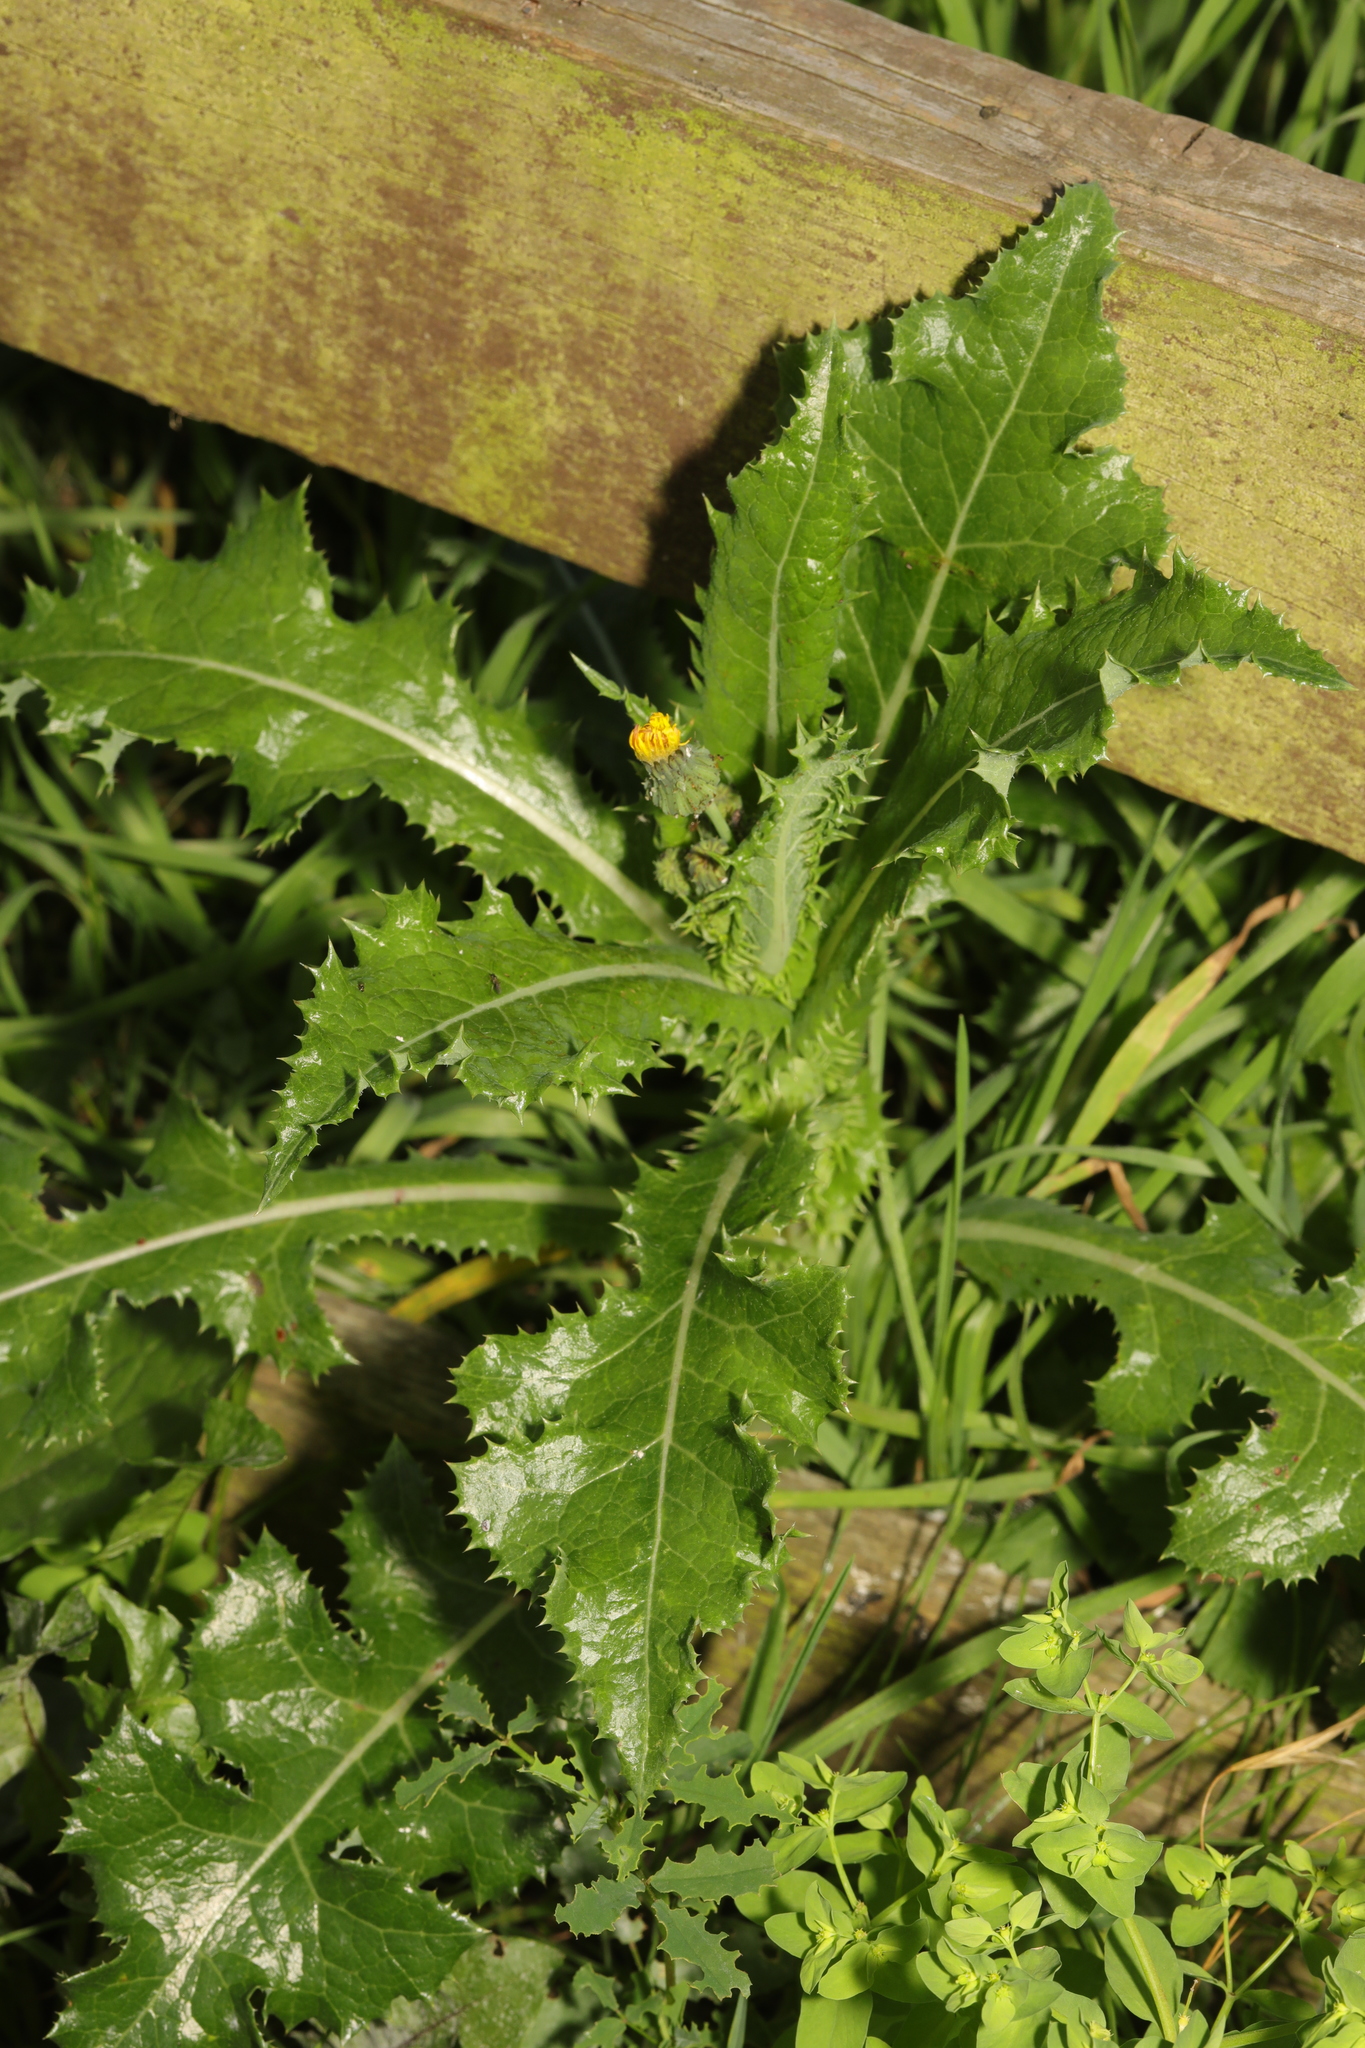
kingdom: Plantae
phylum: Tracheophyta
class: Magnoliopsida
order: Asterales
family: Asteraceae
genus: Sonchus
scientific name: Sonchus asper
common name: Prickly sow-thistle
